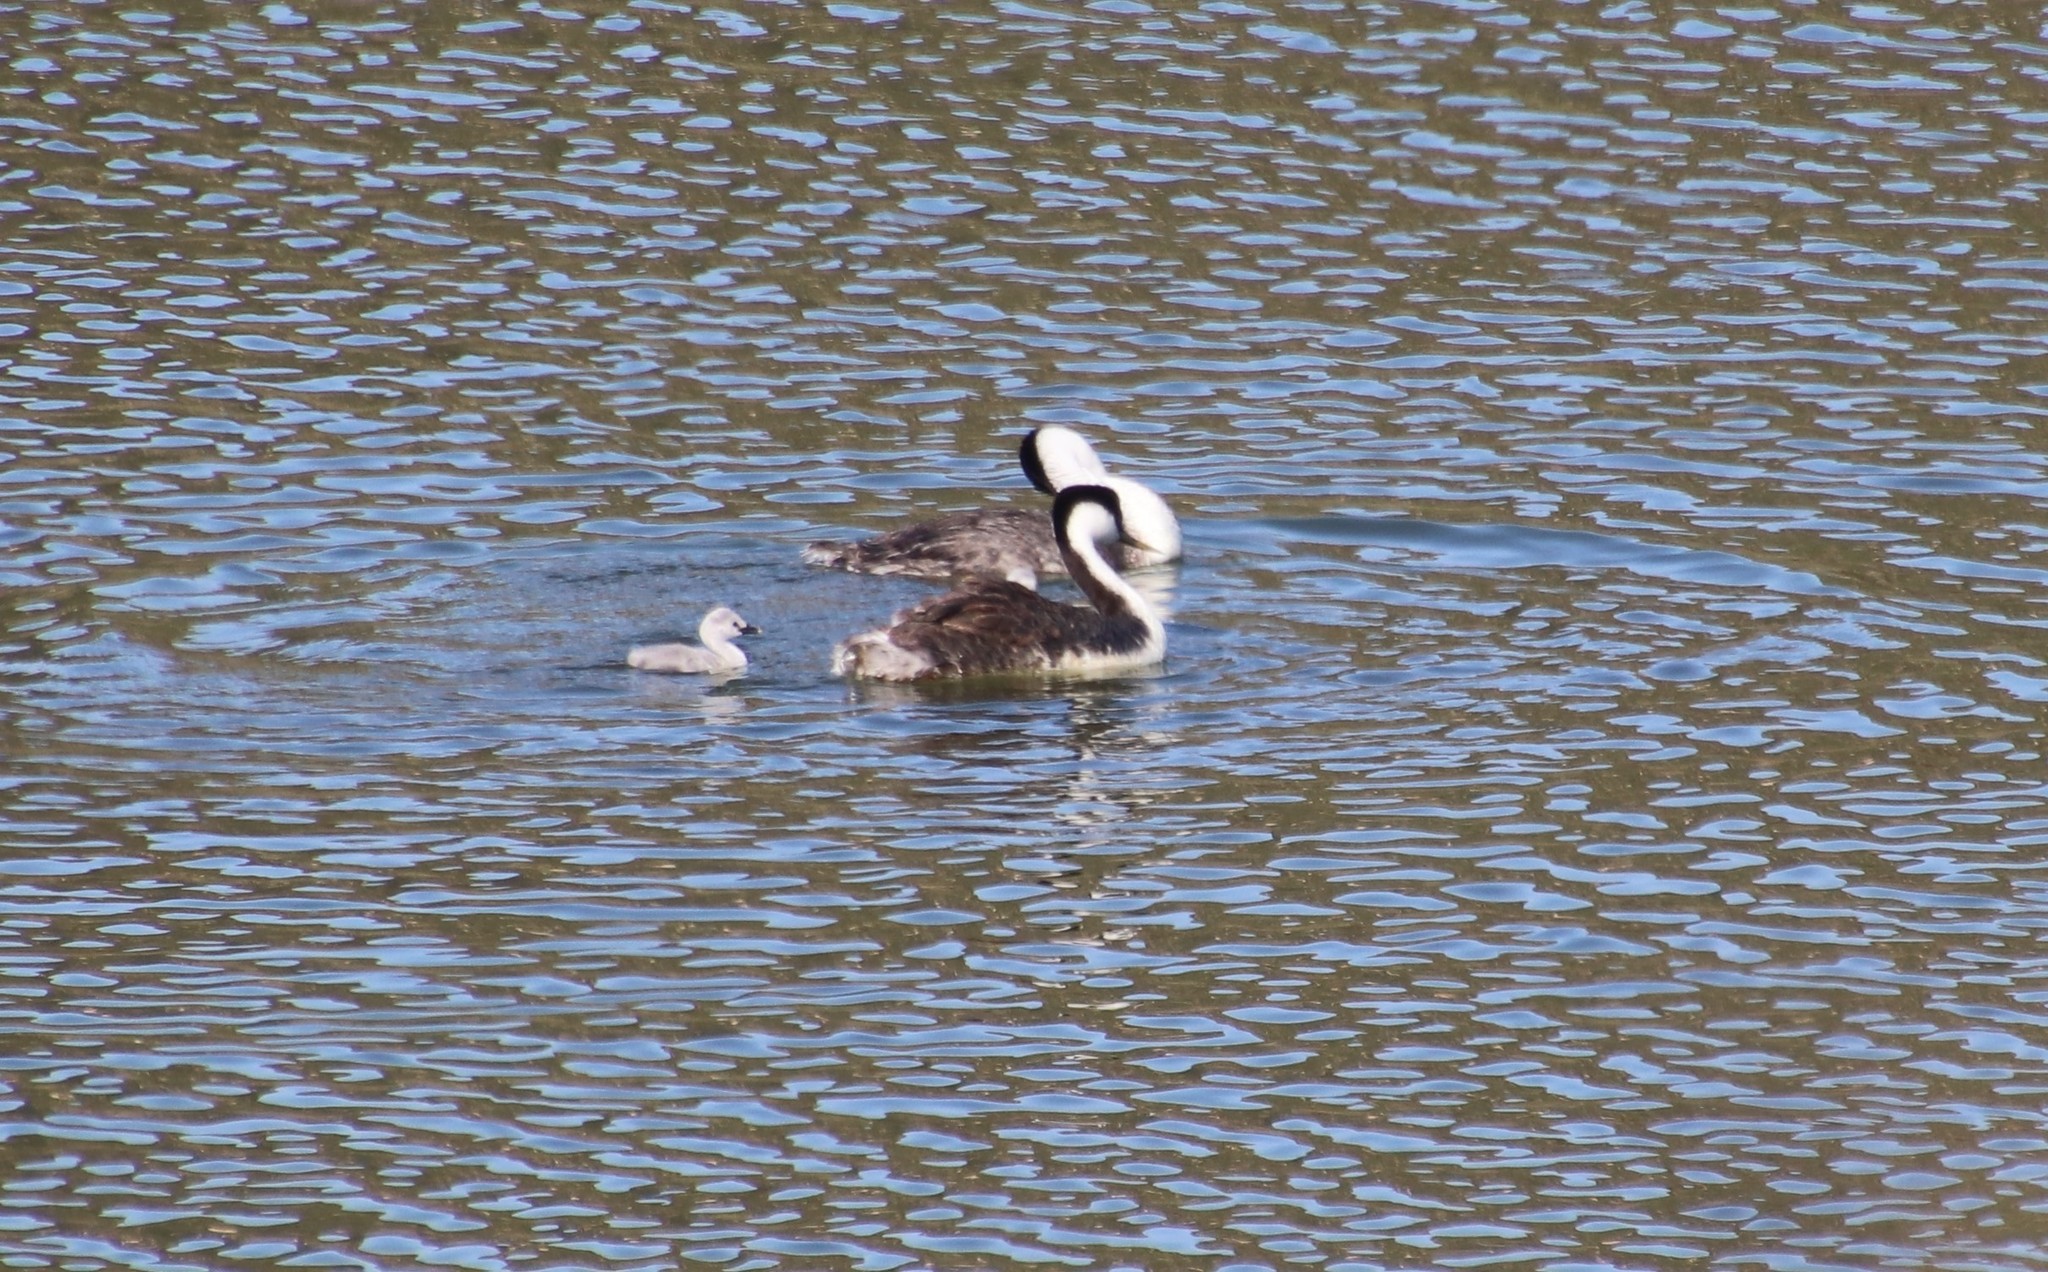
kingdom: Animalia
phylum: Chordata
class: Aves
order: Podicipediformes
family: Podicipedidae
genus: Aechmophorus
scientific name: Aechmophorus occidentalis
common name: Western grebe
